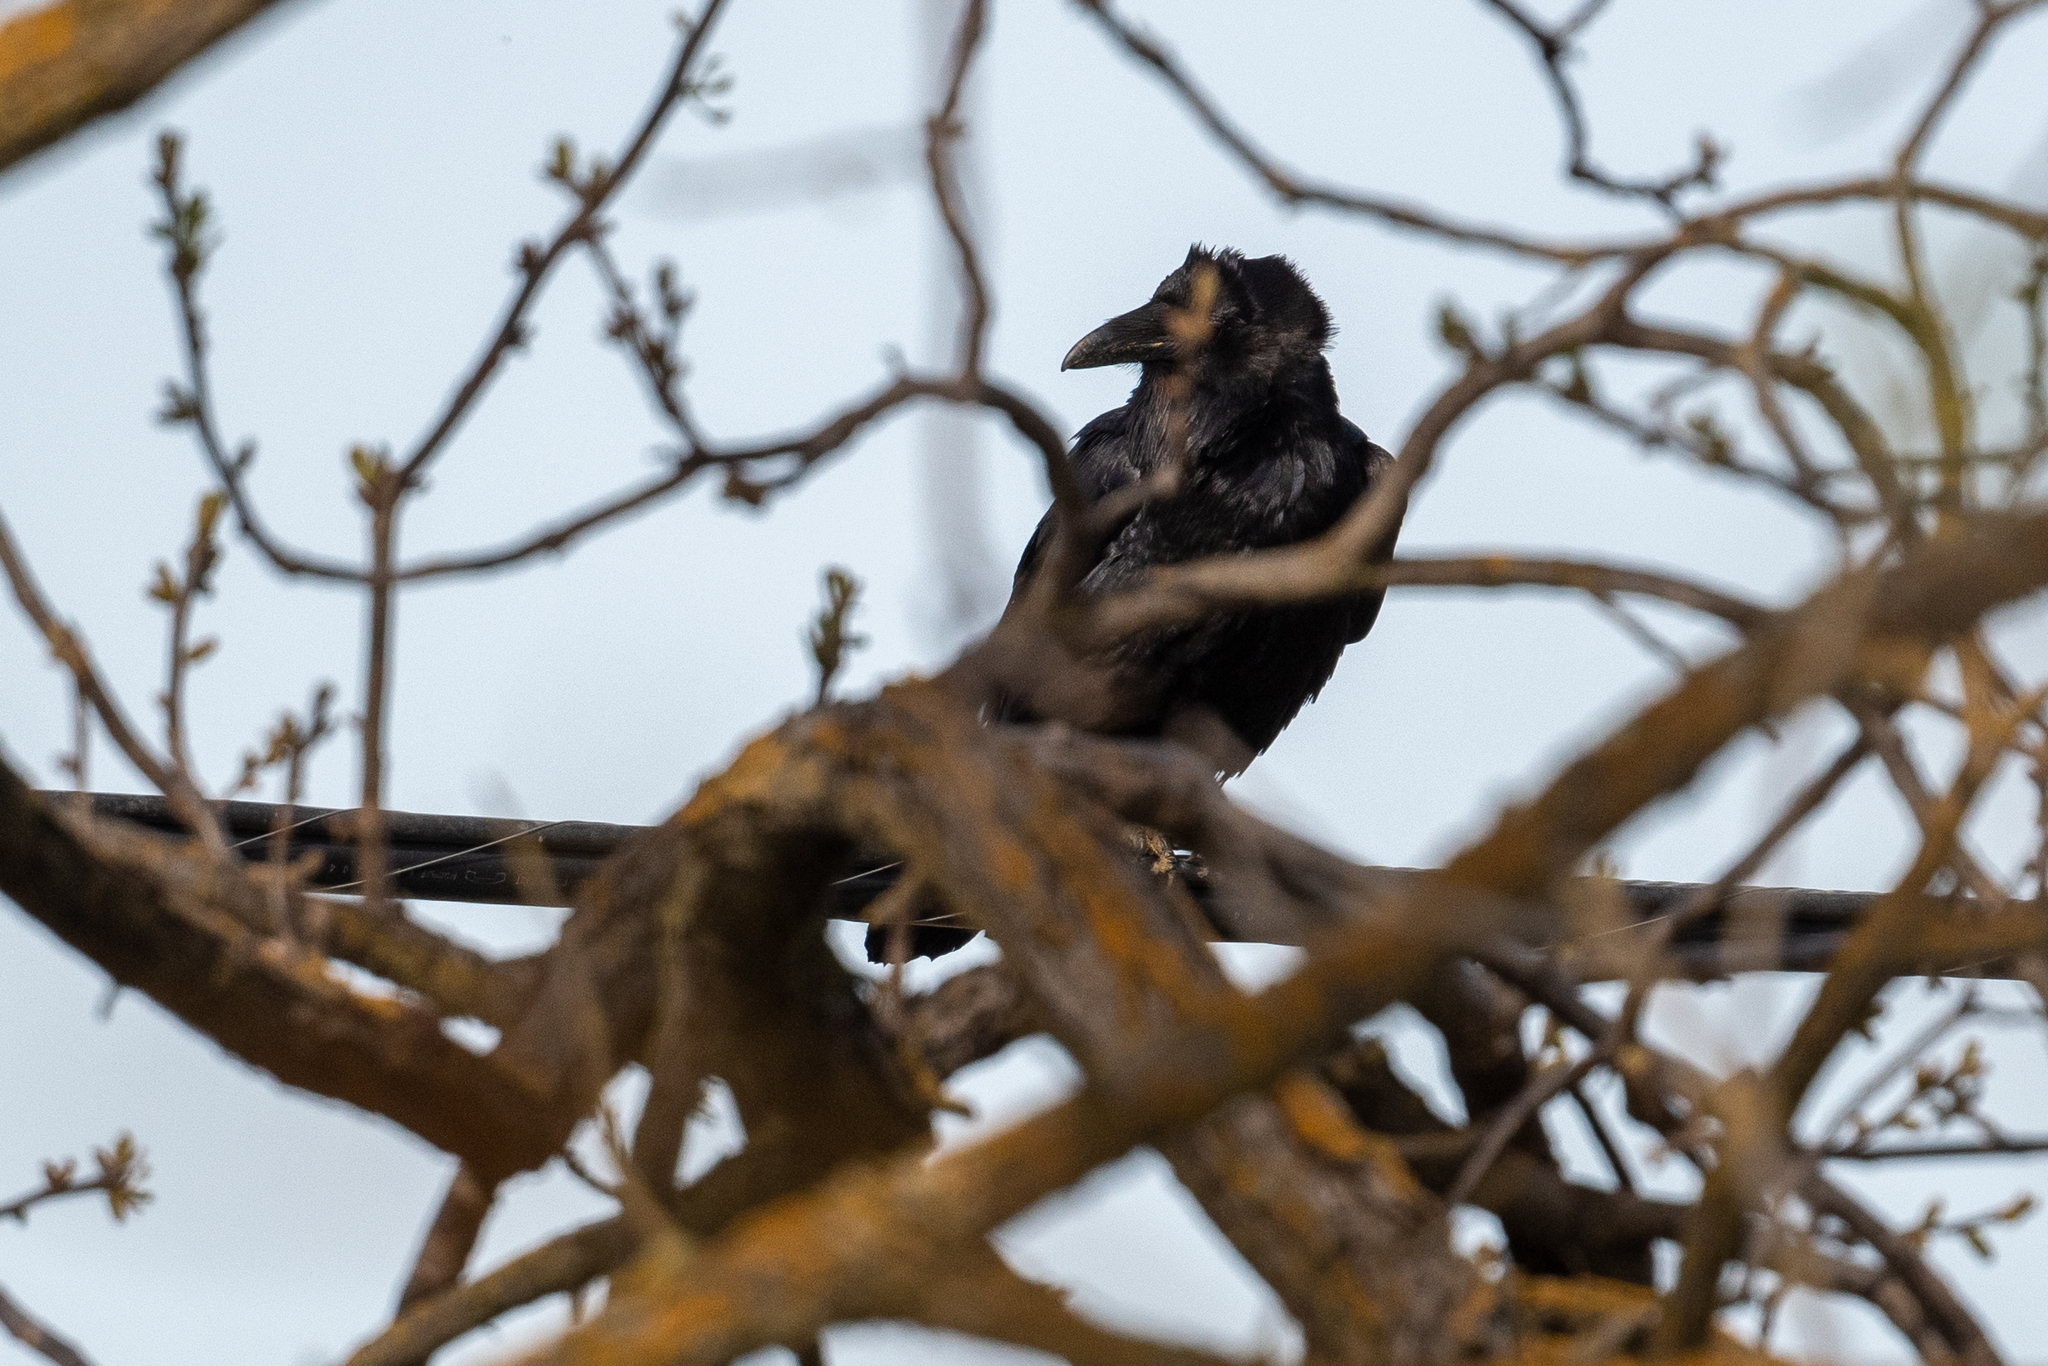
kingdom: Animalia
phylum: Chordata
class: Aves
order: Passeriformes
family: Corvidae
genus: Corvus
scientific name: Corvus corax
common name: Common raven
